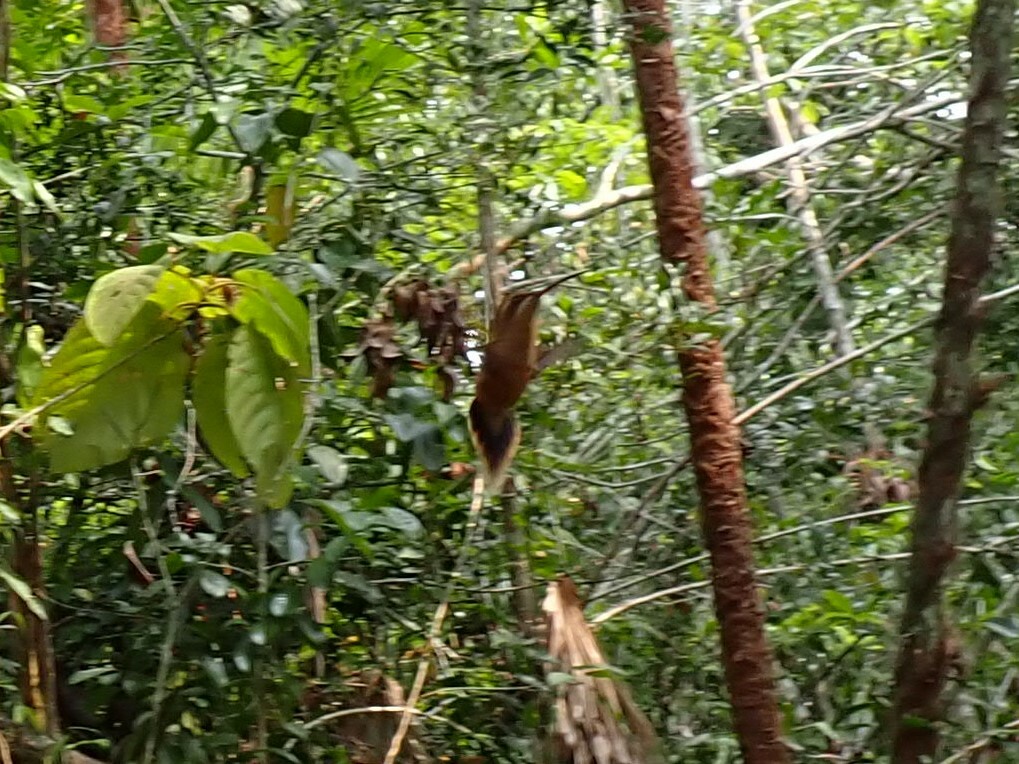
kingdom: Animalia
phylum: Chordata
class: Aves
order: Apodiformes
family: Trochilidae
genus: Phaethornis
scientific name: Phaethornis striigularis
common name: Stripe-throated hermit
